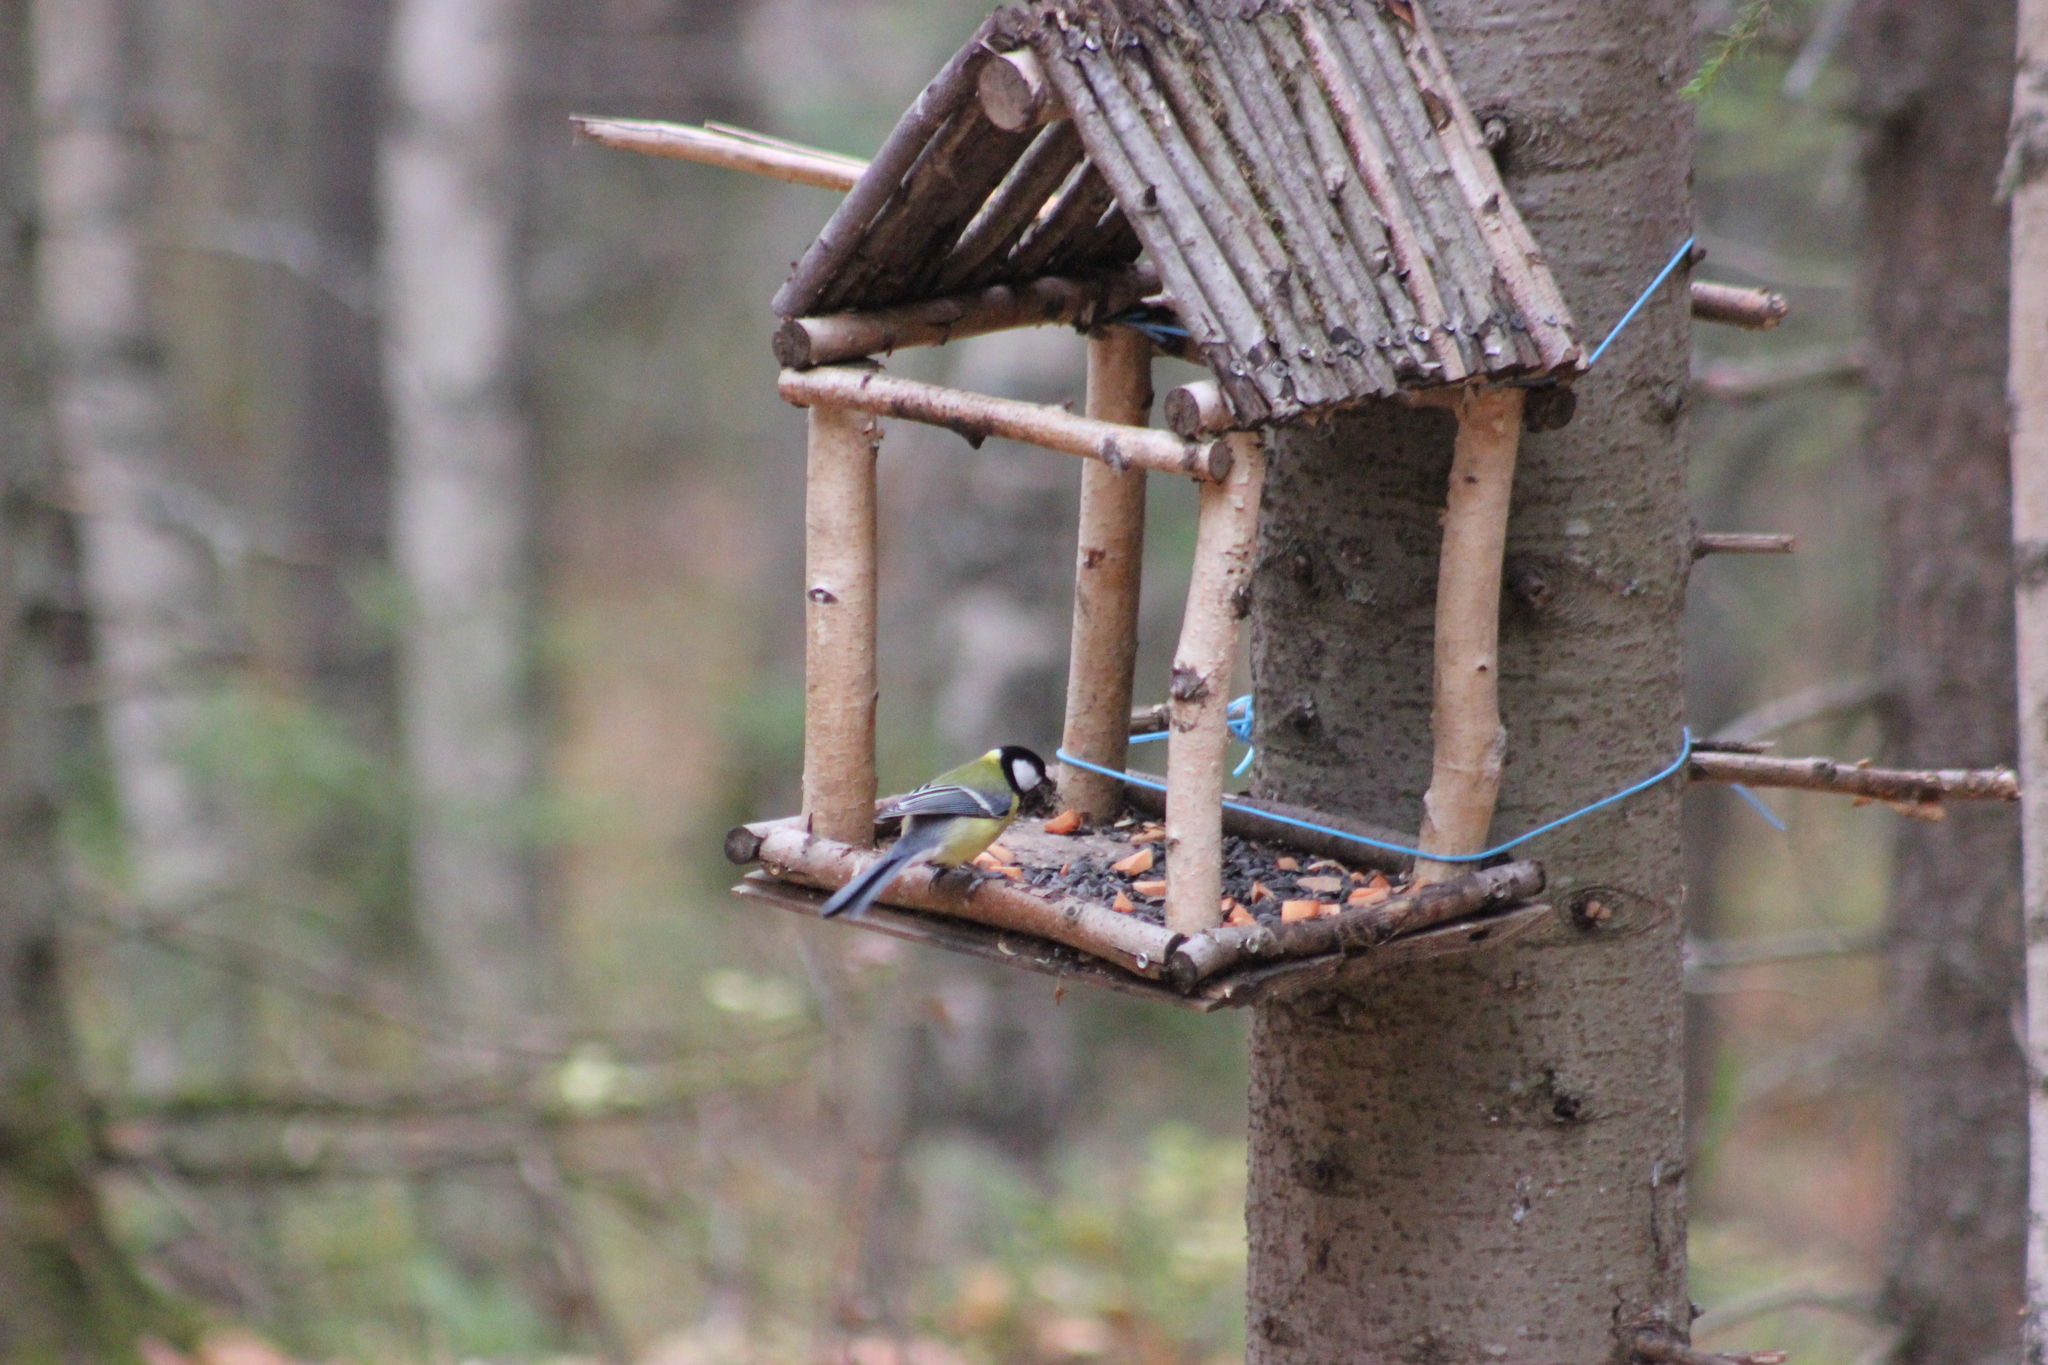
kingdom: Animalia
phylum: Chordata
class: Aves
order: Passeriformes
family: Paridae
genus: Parus
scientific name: Parus major
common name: Great tit
